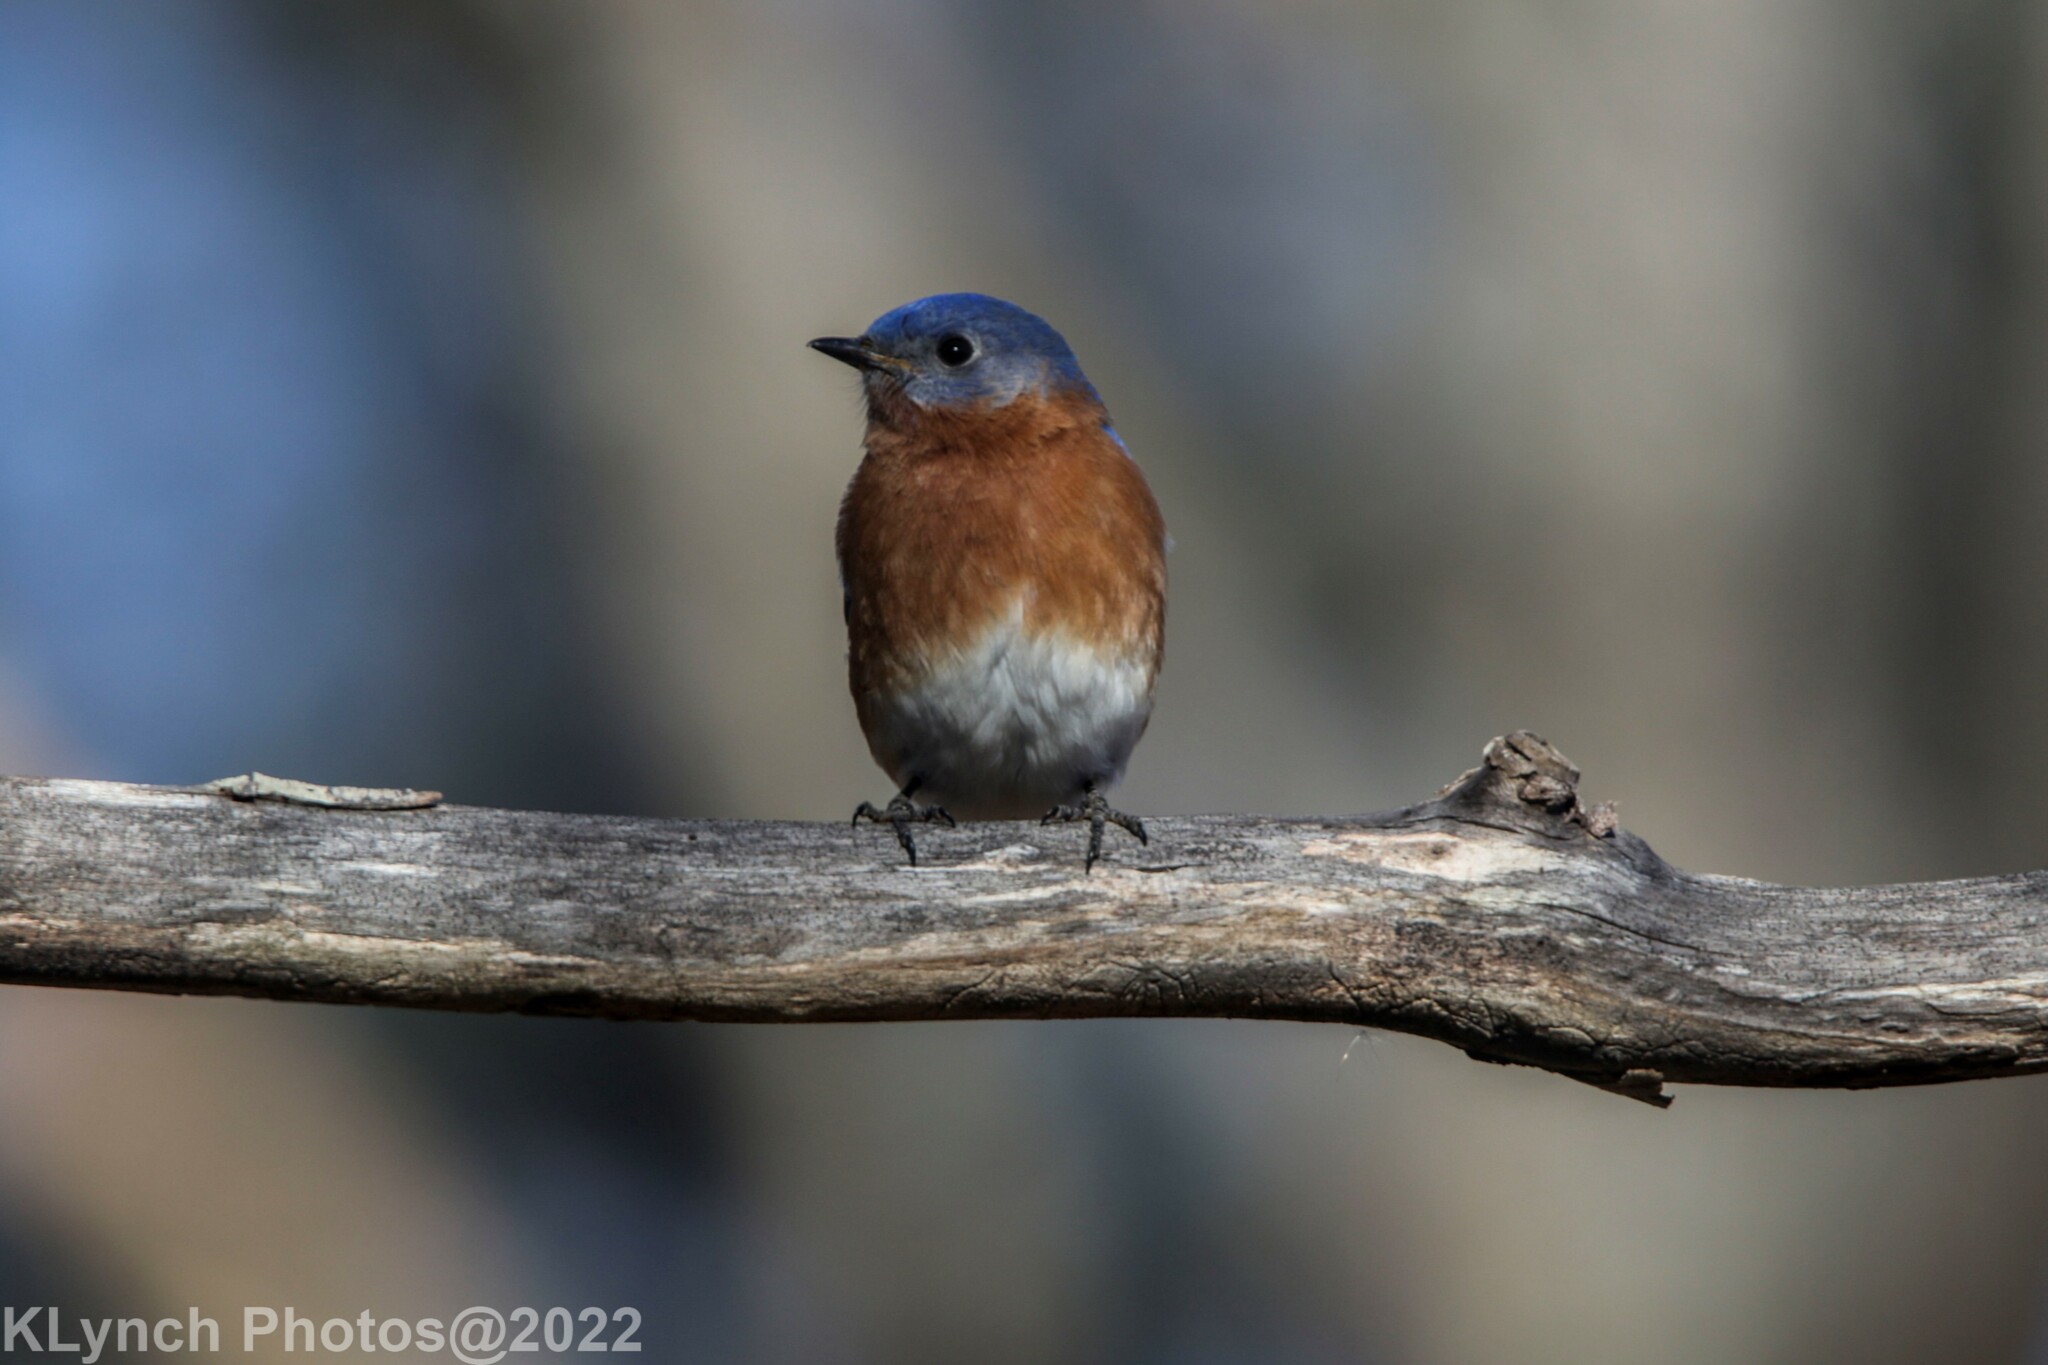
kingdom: Animalia
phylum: Chordata
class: Aves
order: Passeriformes
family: Turdidae
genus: Sialia
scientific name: Sialia sialis
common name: Eastern bluebird
